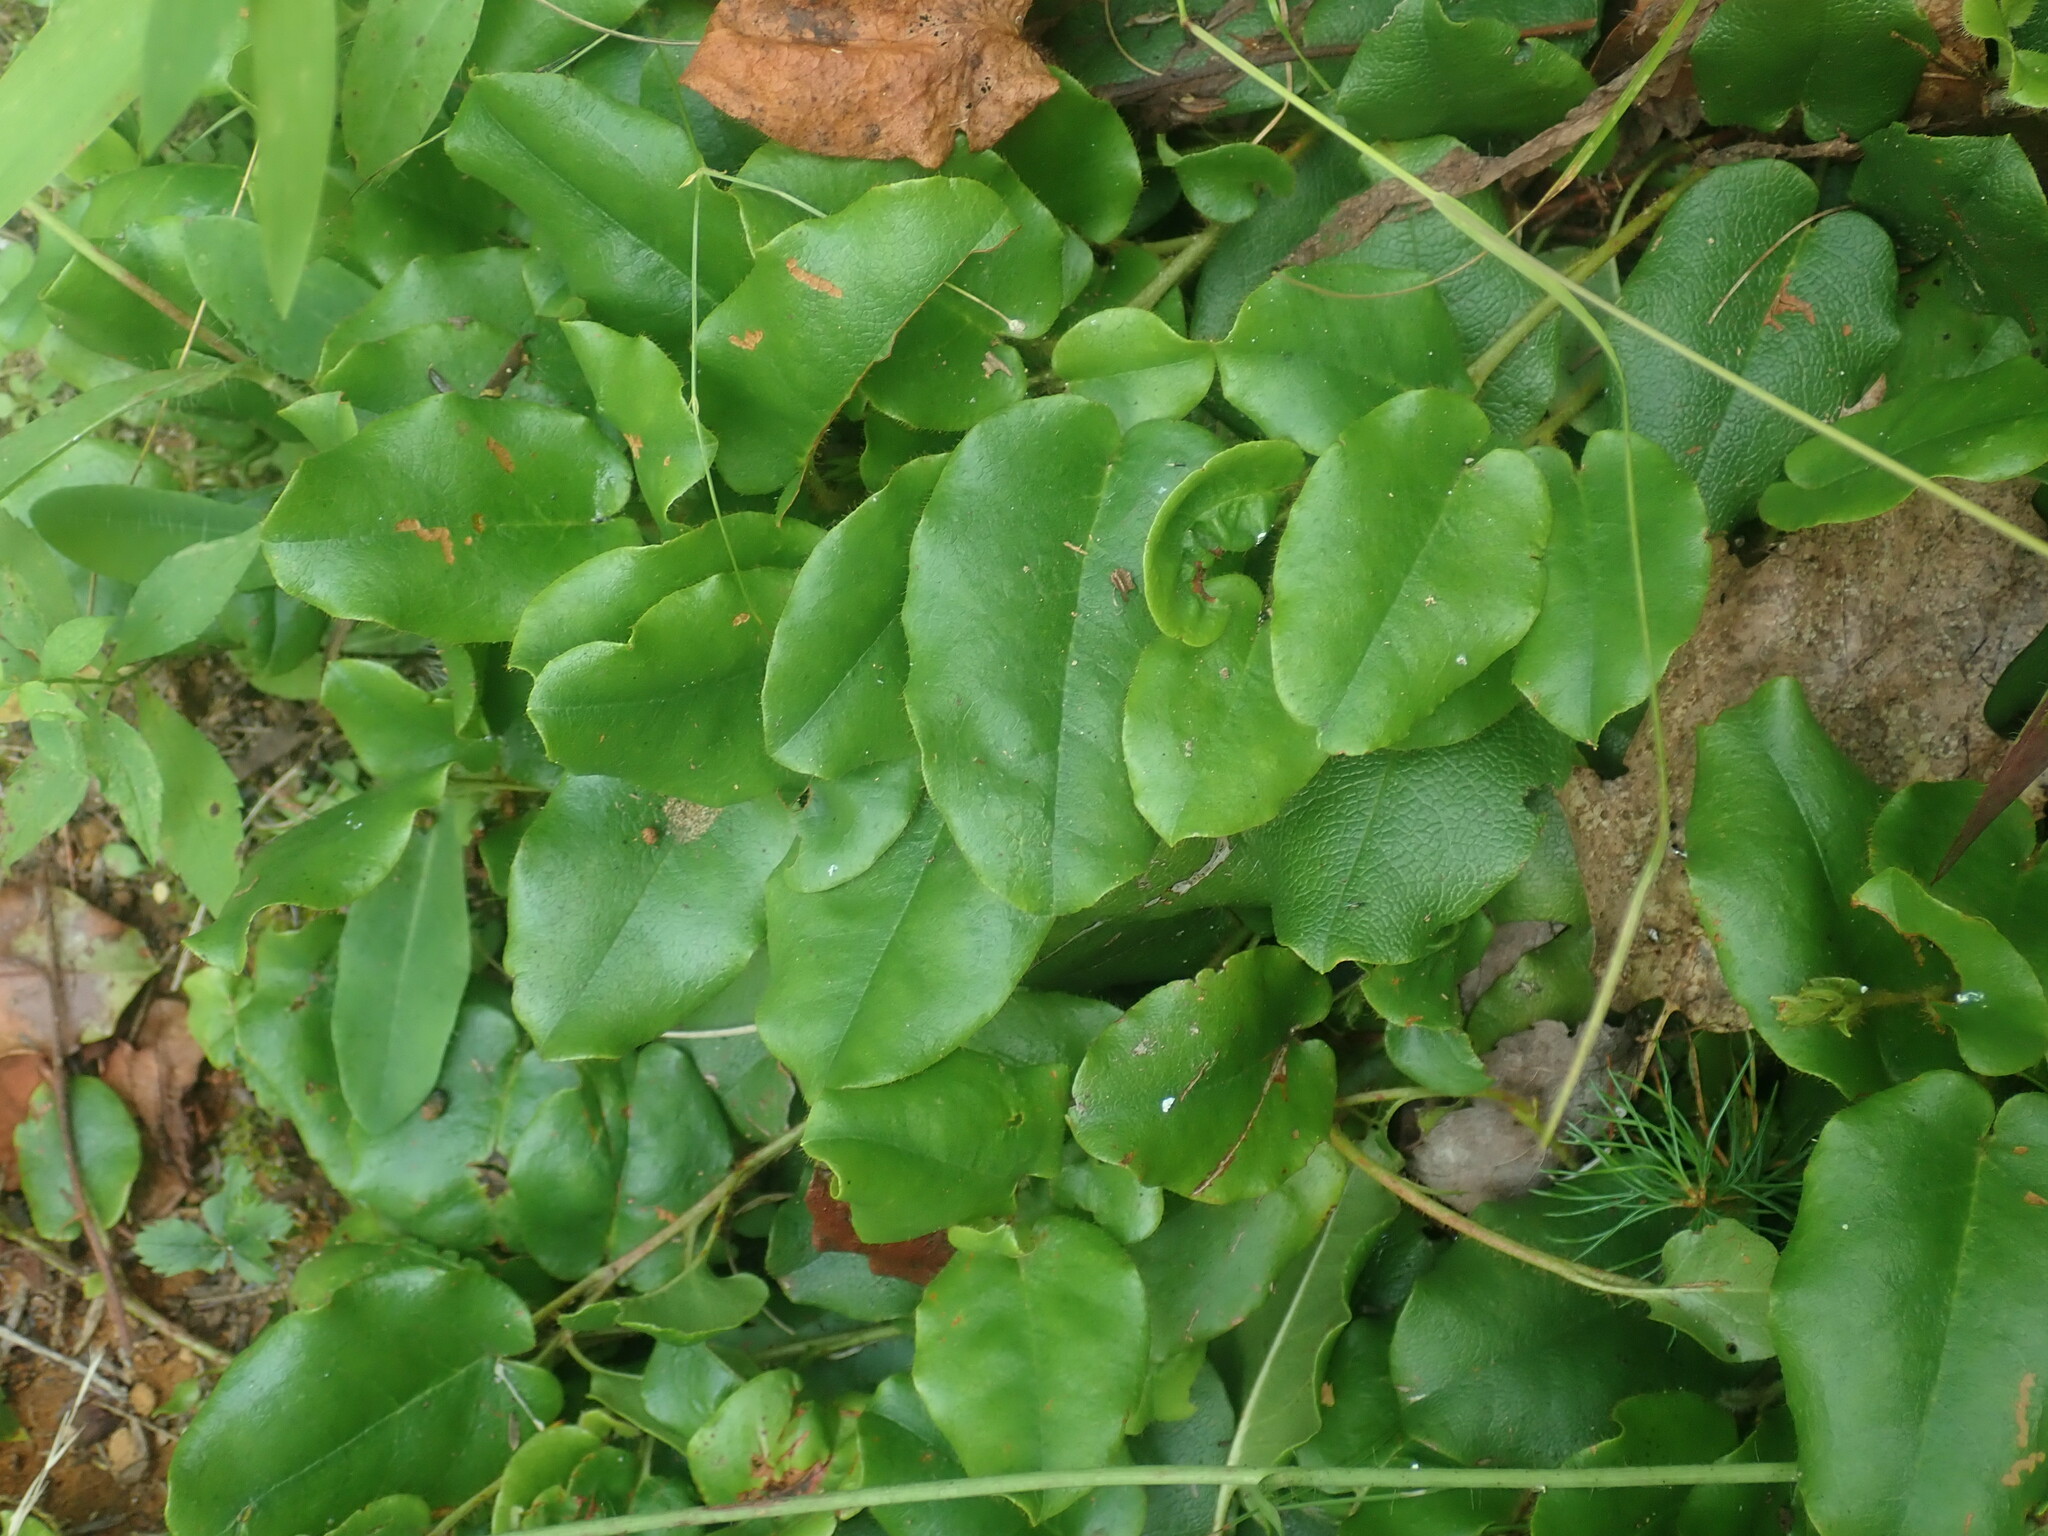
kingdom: Plantae
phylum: Tracheophyta
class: Magnoliopsida
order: Ericales
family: Ericaceae
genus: Epigaea
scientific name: Epigaea repens
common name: Gravelroot
